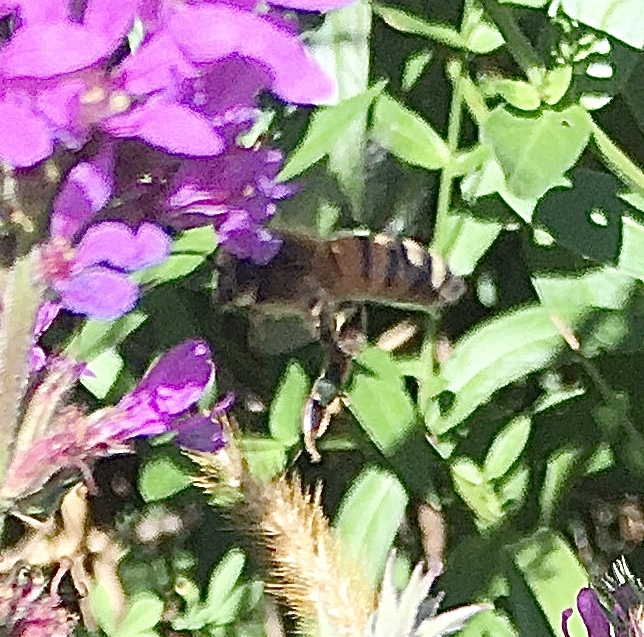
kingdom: Animalia
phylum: Arthropoda
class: Insecta
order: Hymenoptera
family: Apidae
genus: Apis
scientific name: Apis mellifera
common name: Honey bee
